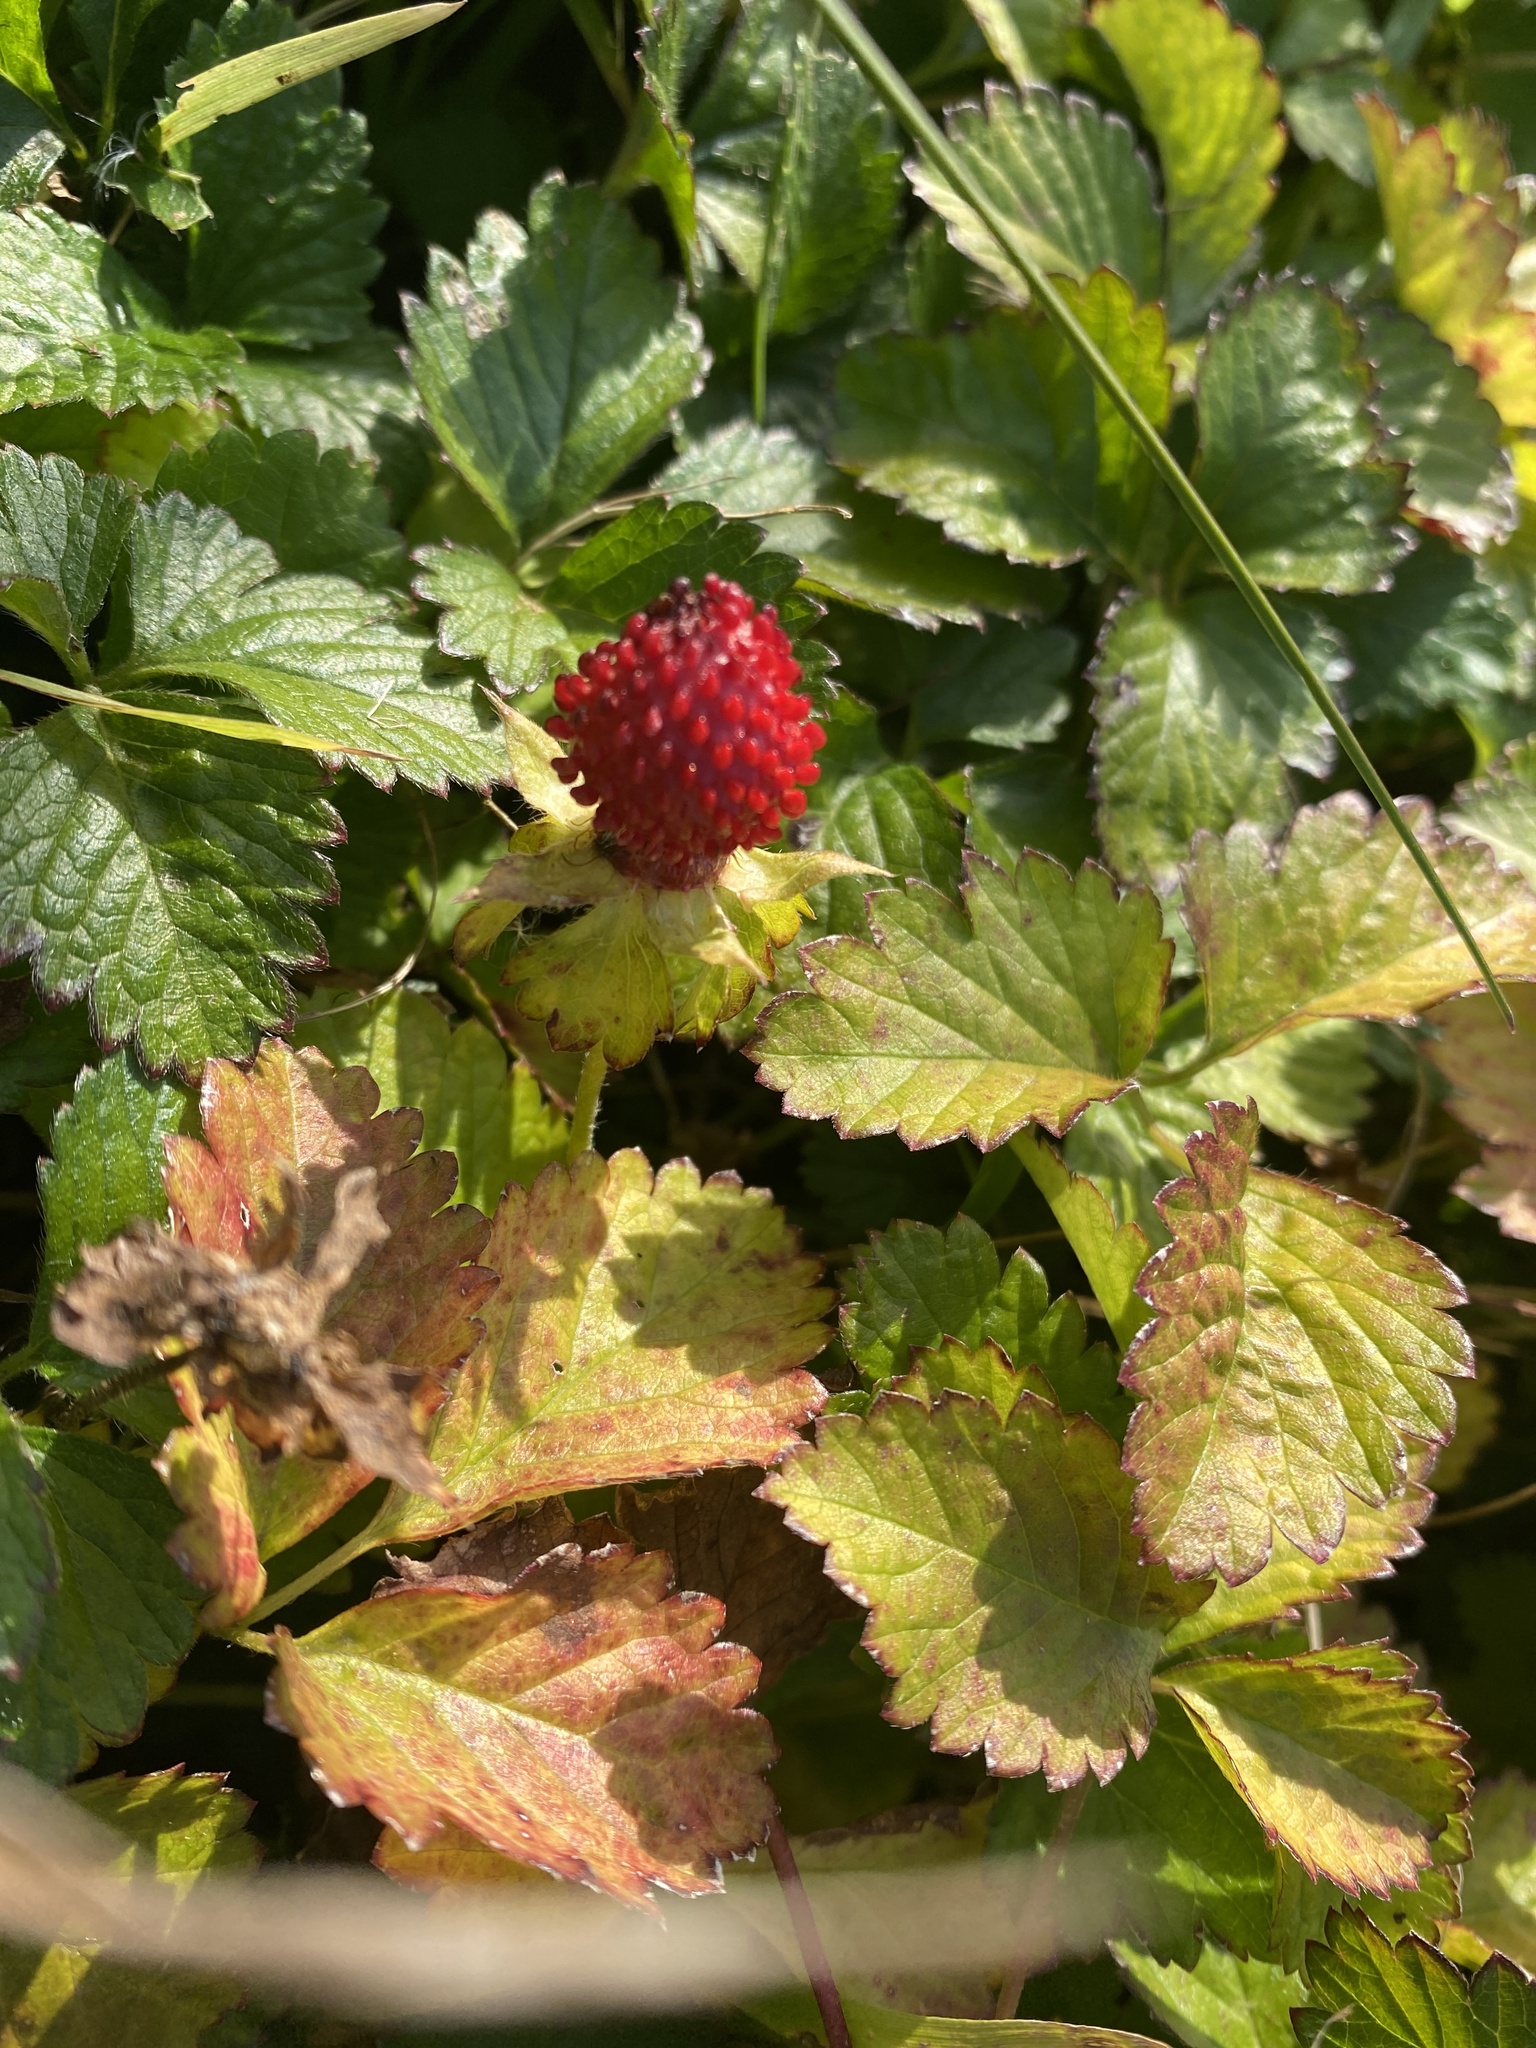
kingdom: Plantae
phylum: Tracheophyta
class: Magnoliopsida
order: Rosales
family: Rosaceae
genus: Potentilla
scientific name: Potentilla indica
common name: Yellow-flowered strawberry
